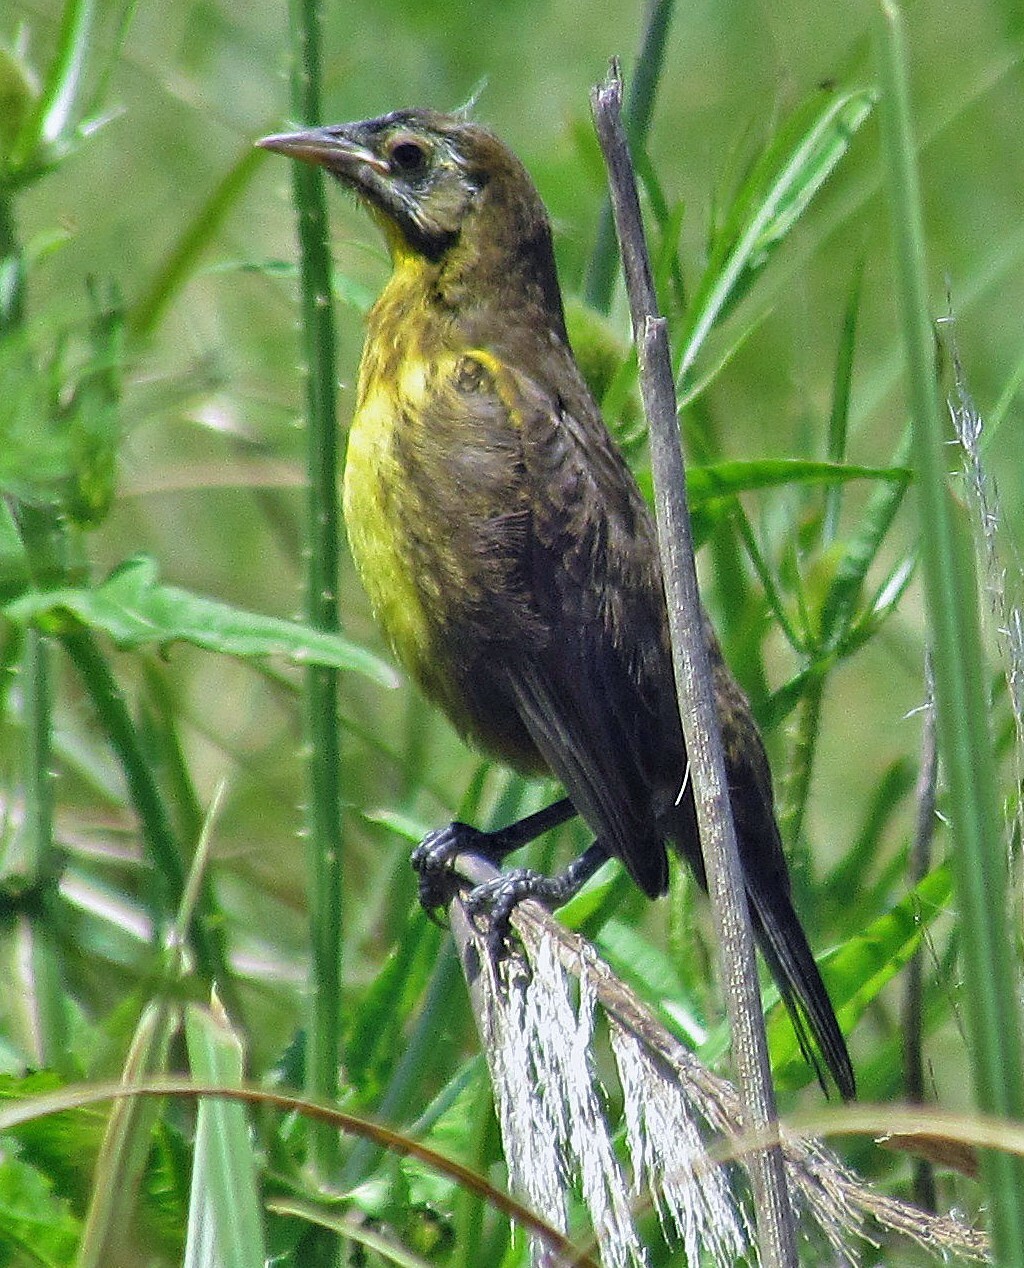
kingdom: Animalia
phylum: Chordata
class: Aves
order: Passeriformes
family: Icteridae
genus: Pseudoleistes
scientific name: Pseudoleistes virescens
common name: Brown-and-yellow marshbird
